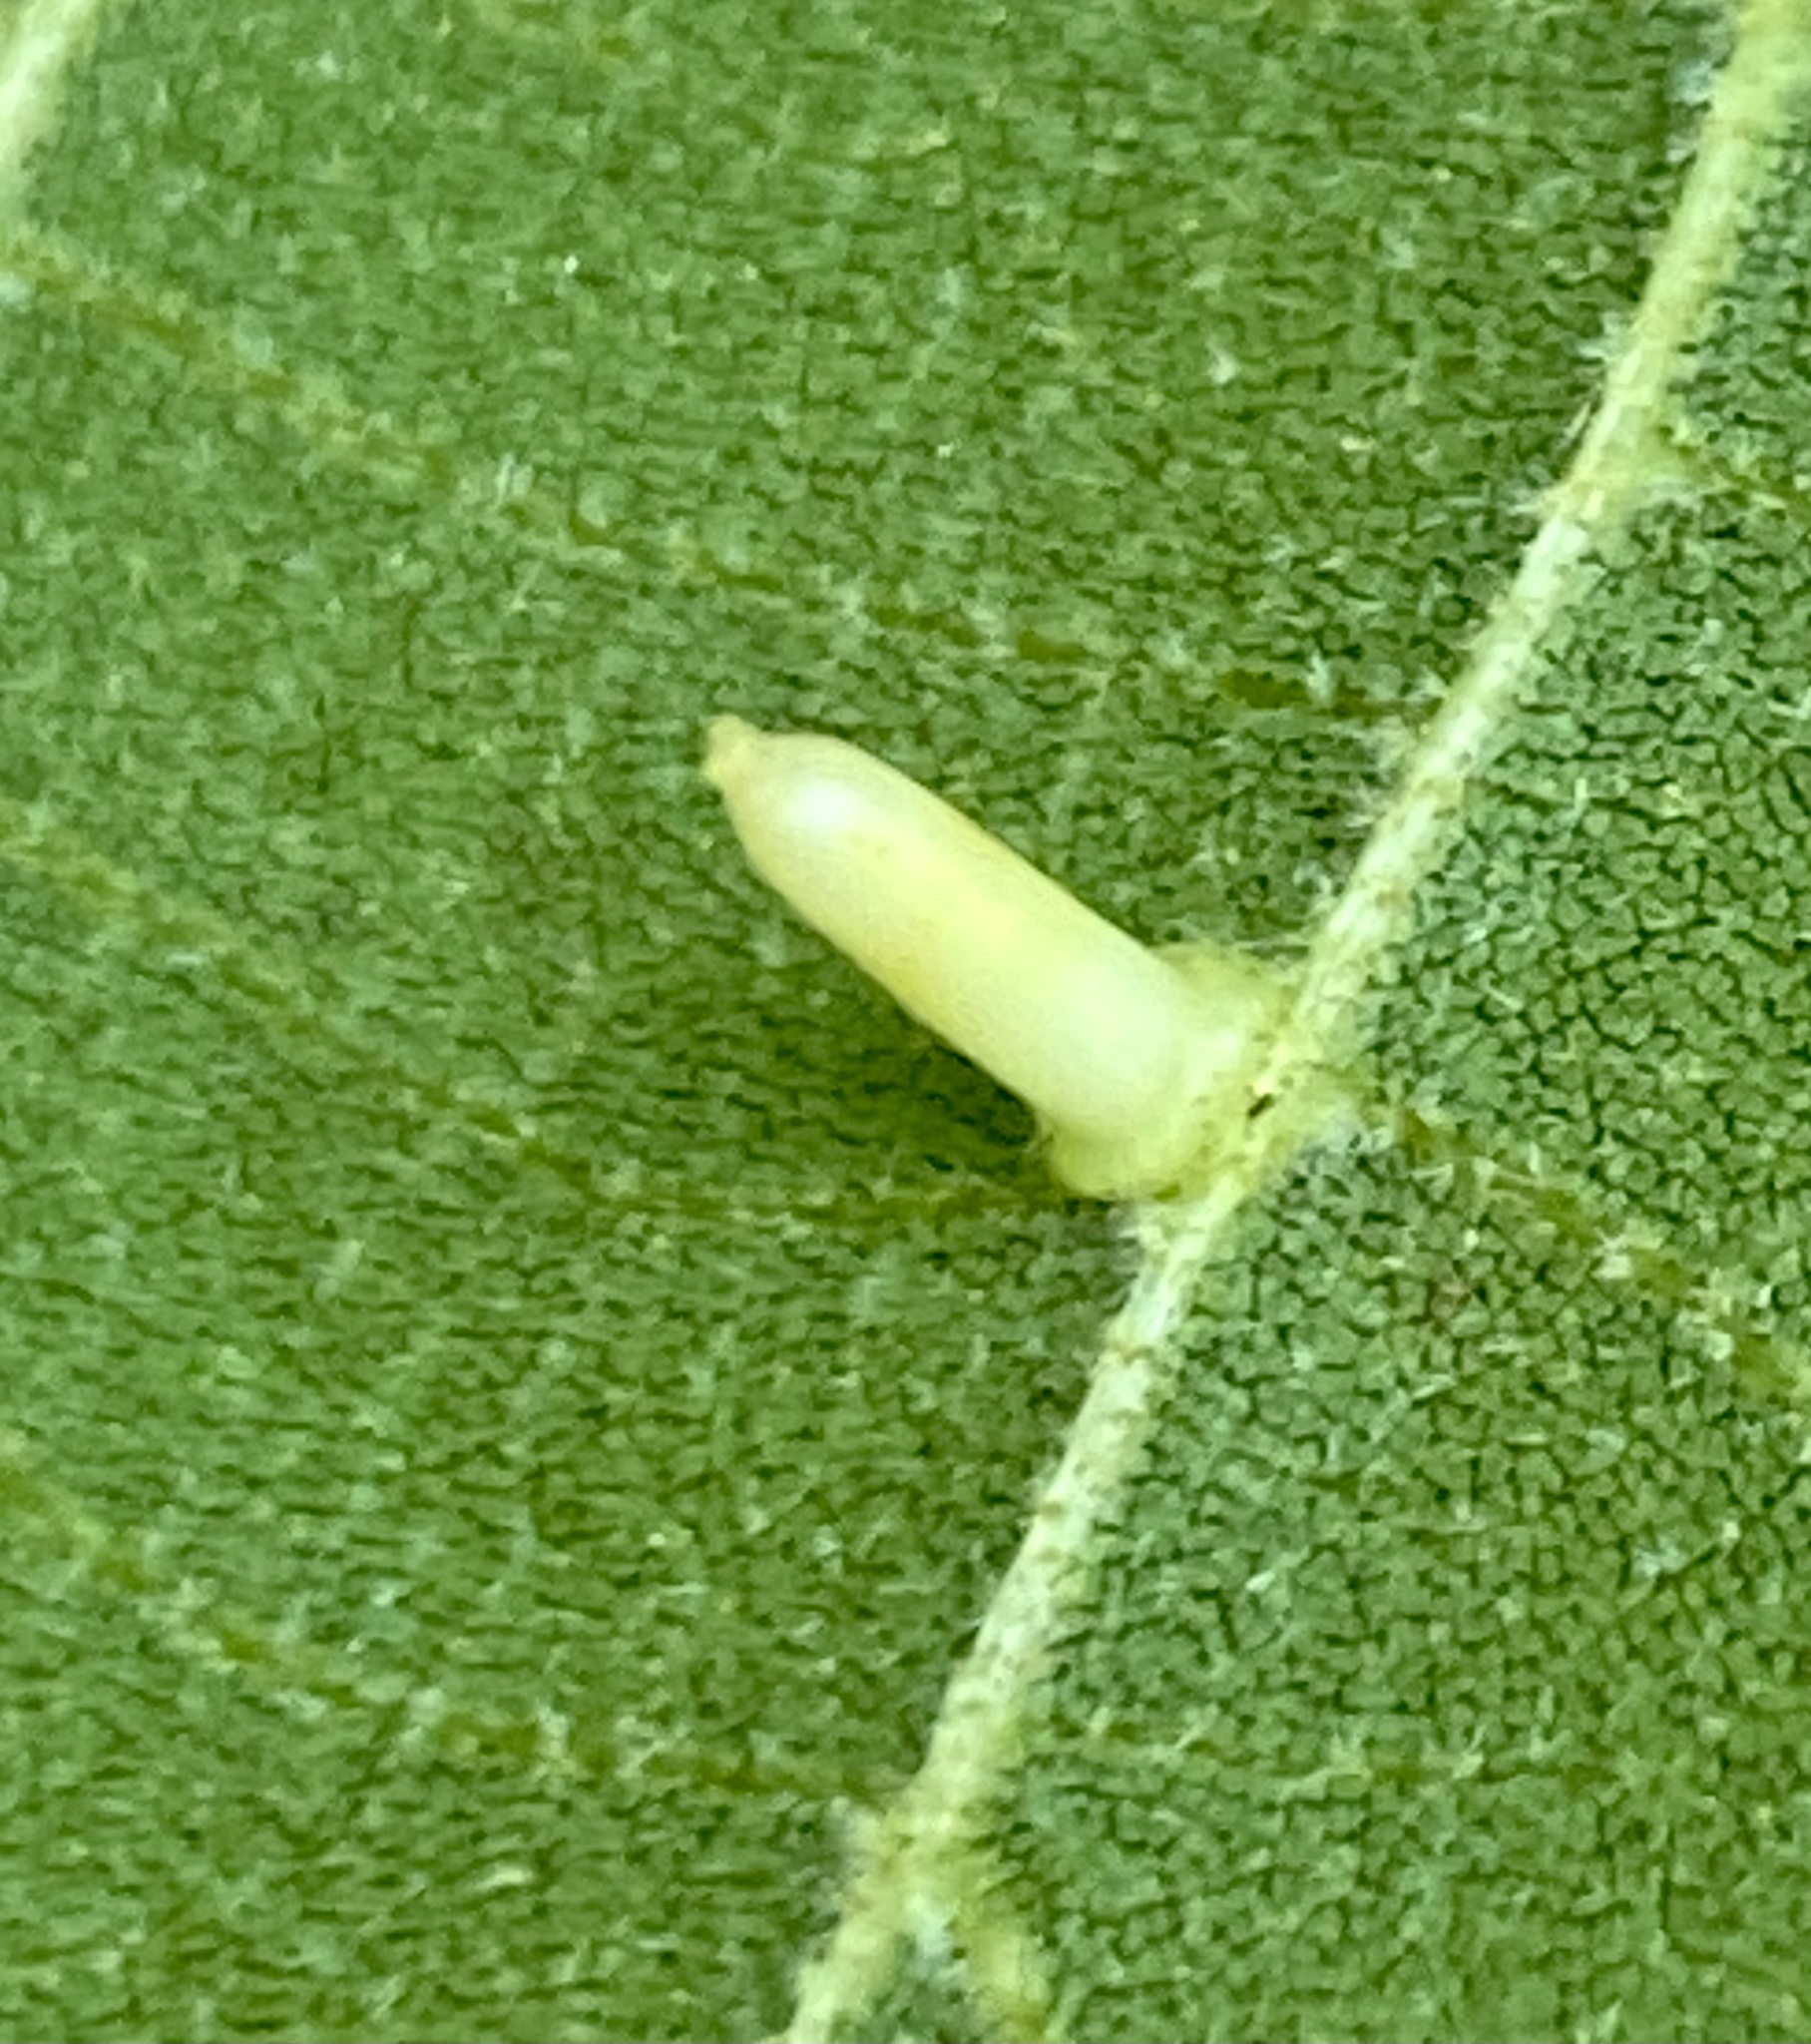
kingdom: Animalia
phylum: Arthropoda
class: Insecta
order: Diptera
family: Cecidomyiidae
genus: Caryomyia
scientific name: Caryomyia tubicola
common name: Hickory bullet gall midge
